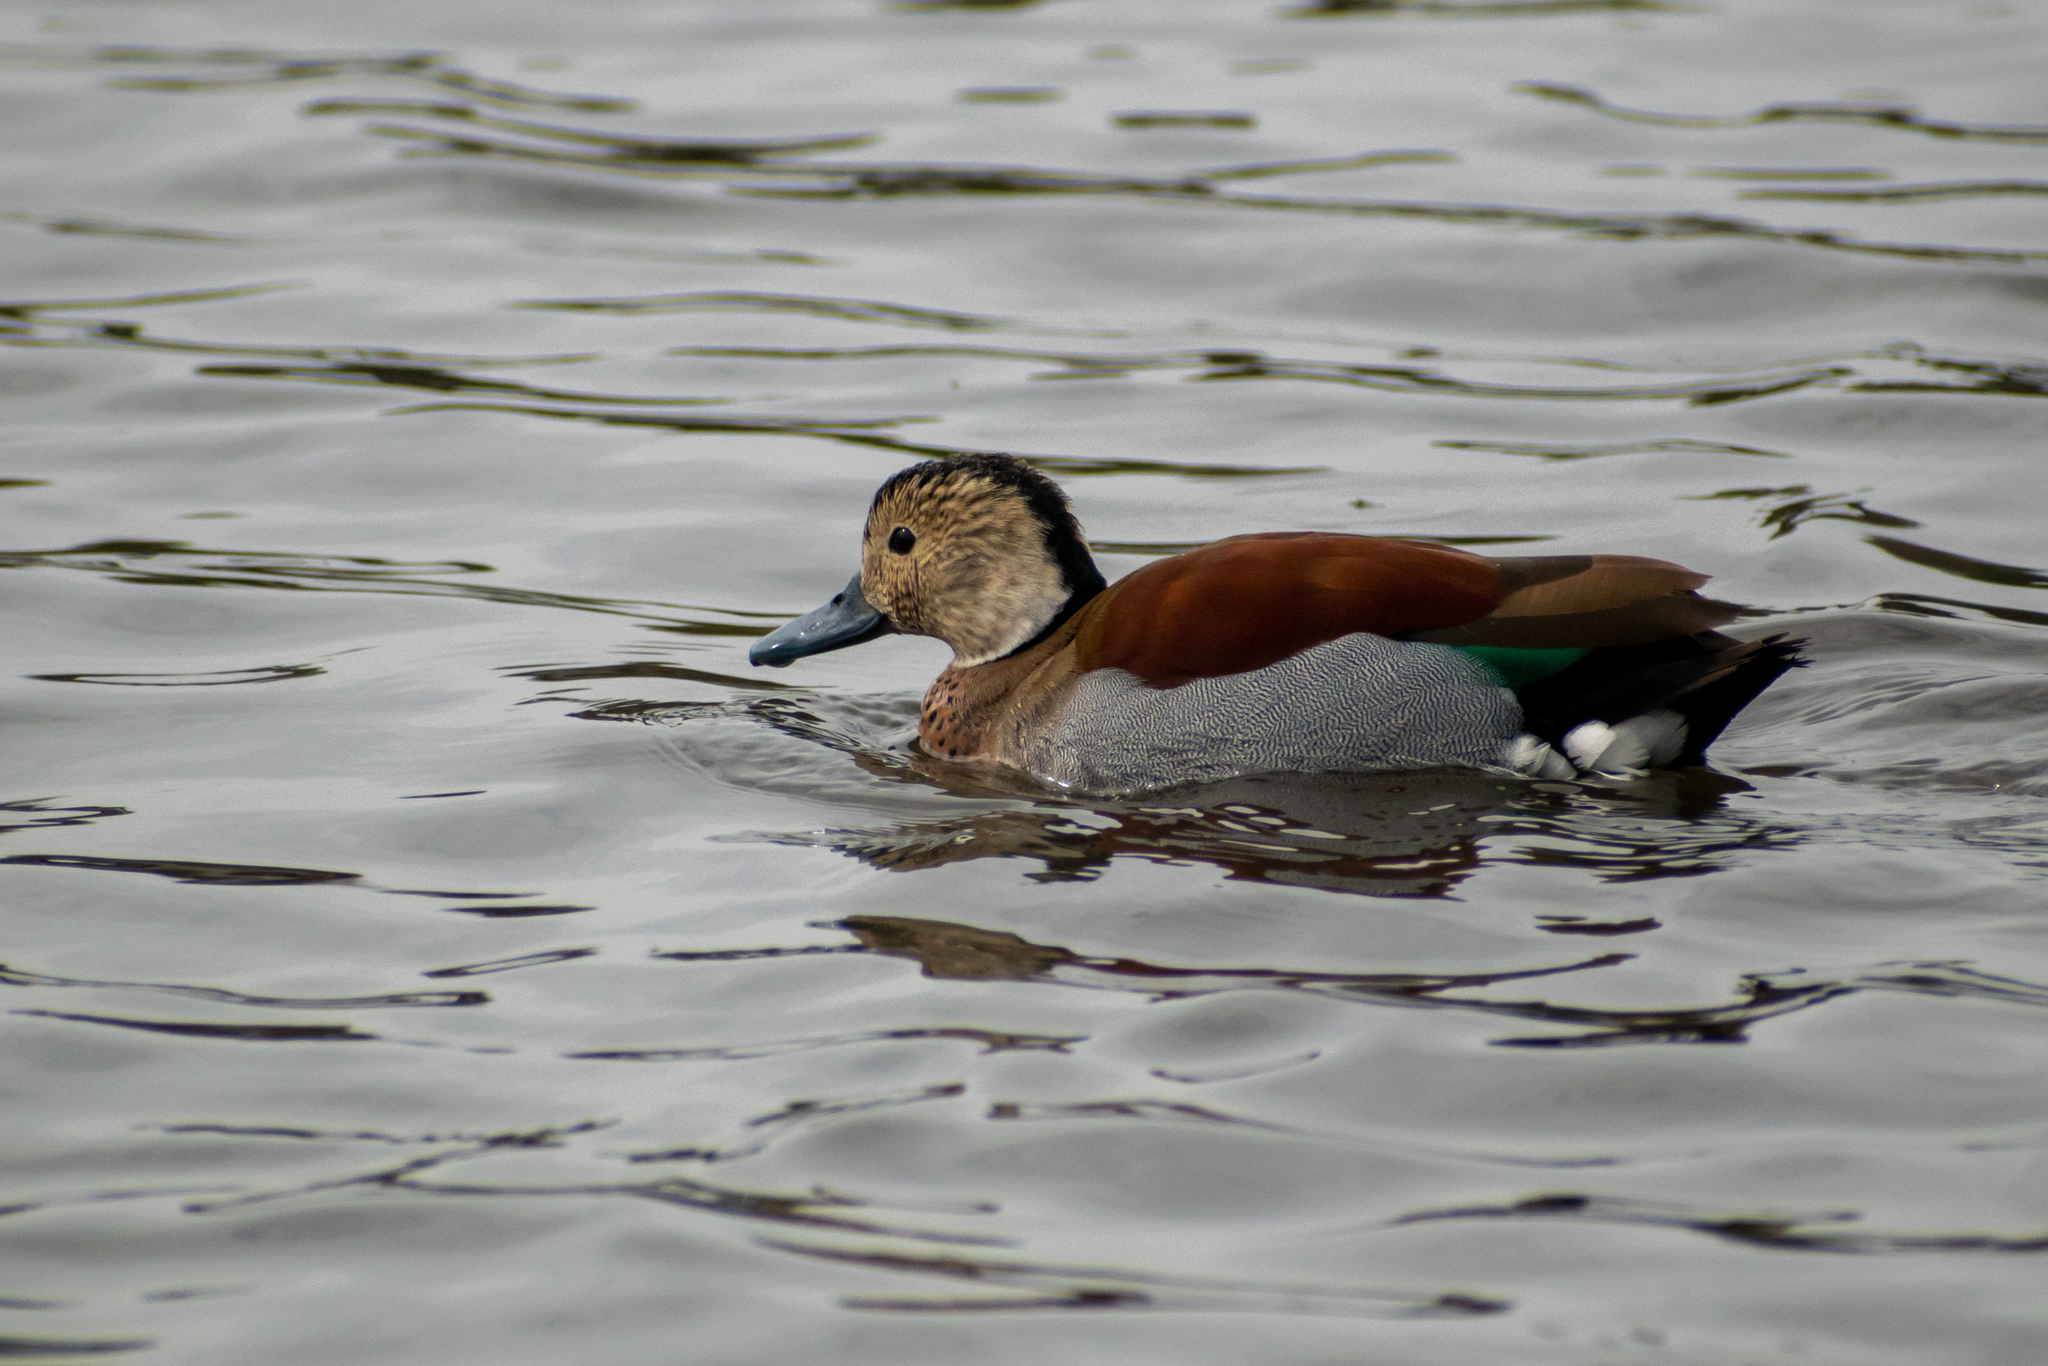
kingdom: Animalia
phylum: Chordata
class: Aves
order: Anseriformes
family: Anatidae
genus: Callonetta
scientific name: Callonetta leucophrys
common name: Ringed teal
